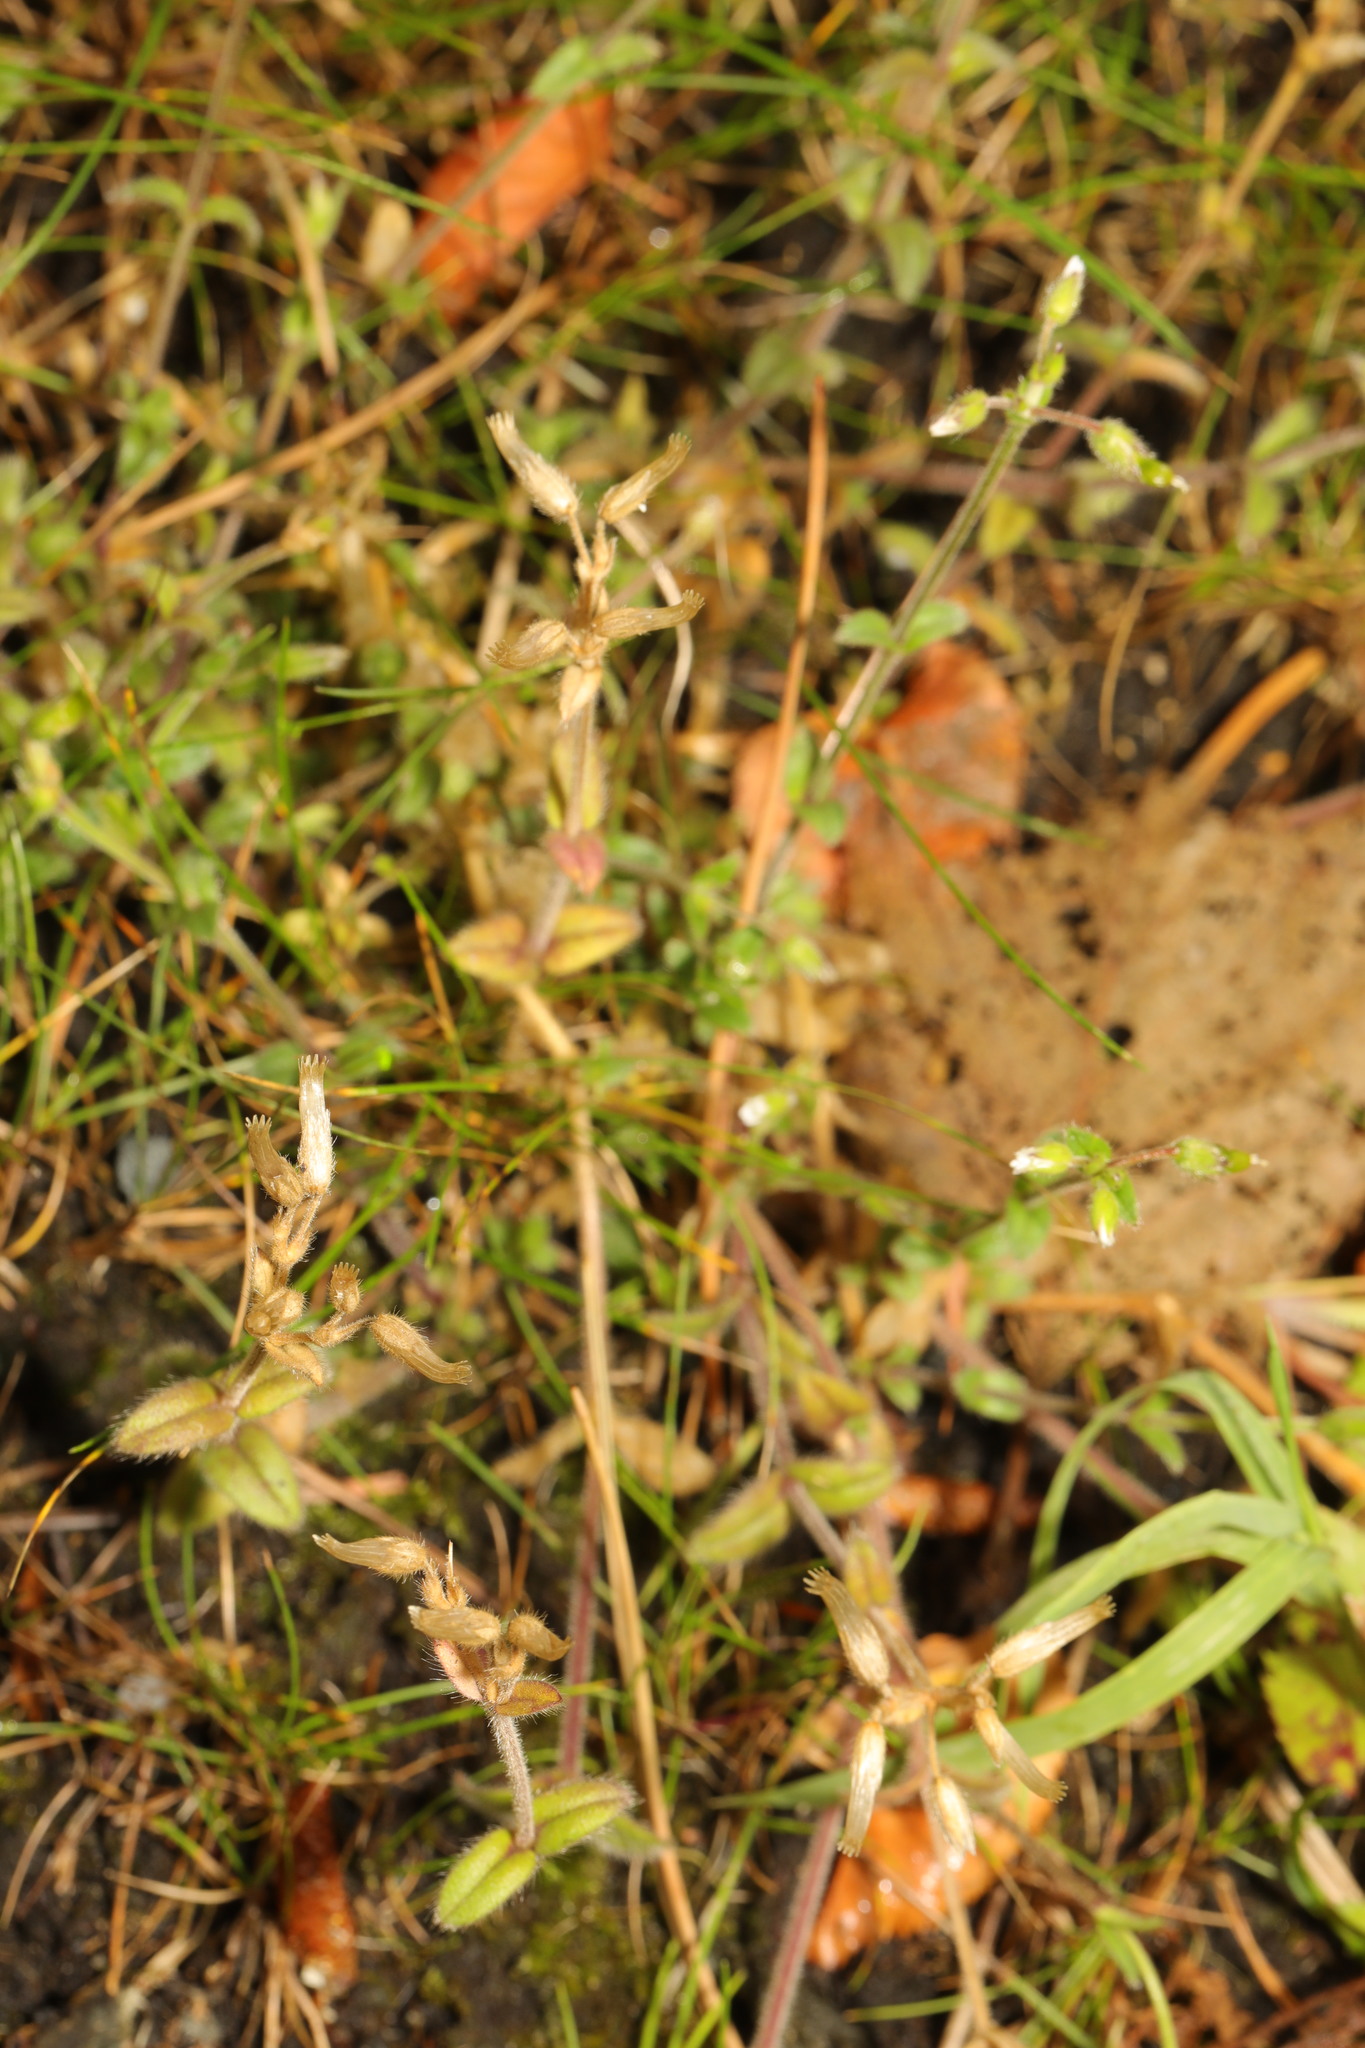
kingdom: Plantae
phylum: Tracheophyta
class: Magnoliopsida
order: Caryophyllales
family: Caryophyllaceae
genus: Cerastium
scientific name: Cerastium fontanum
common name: Common mouse-ear
